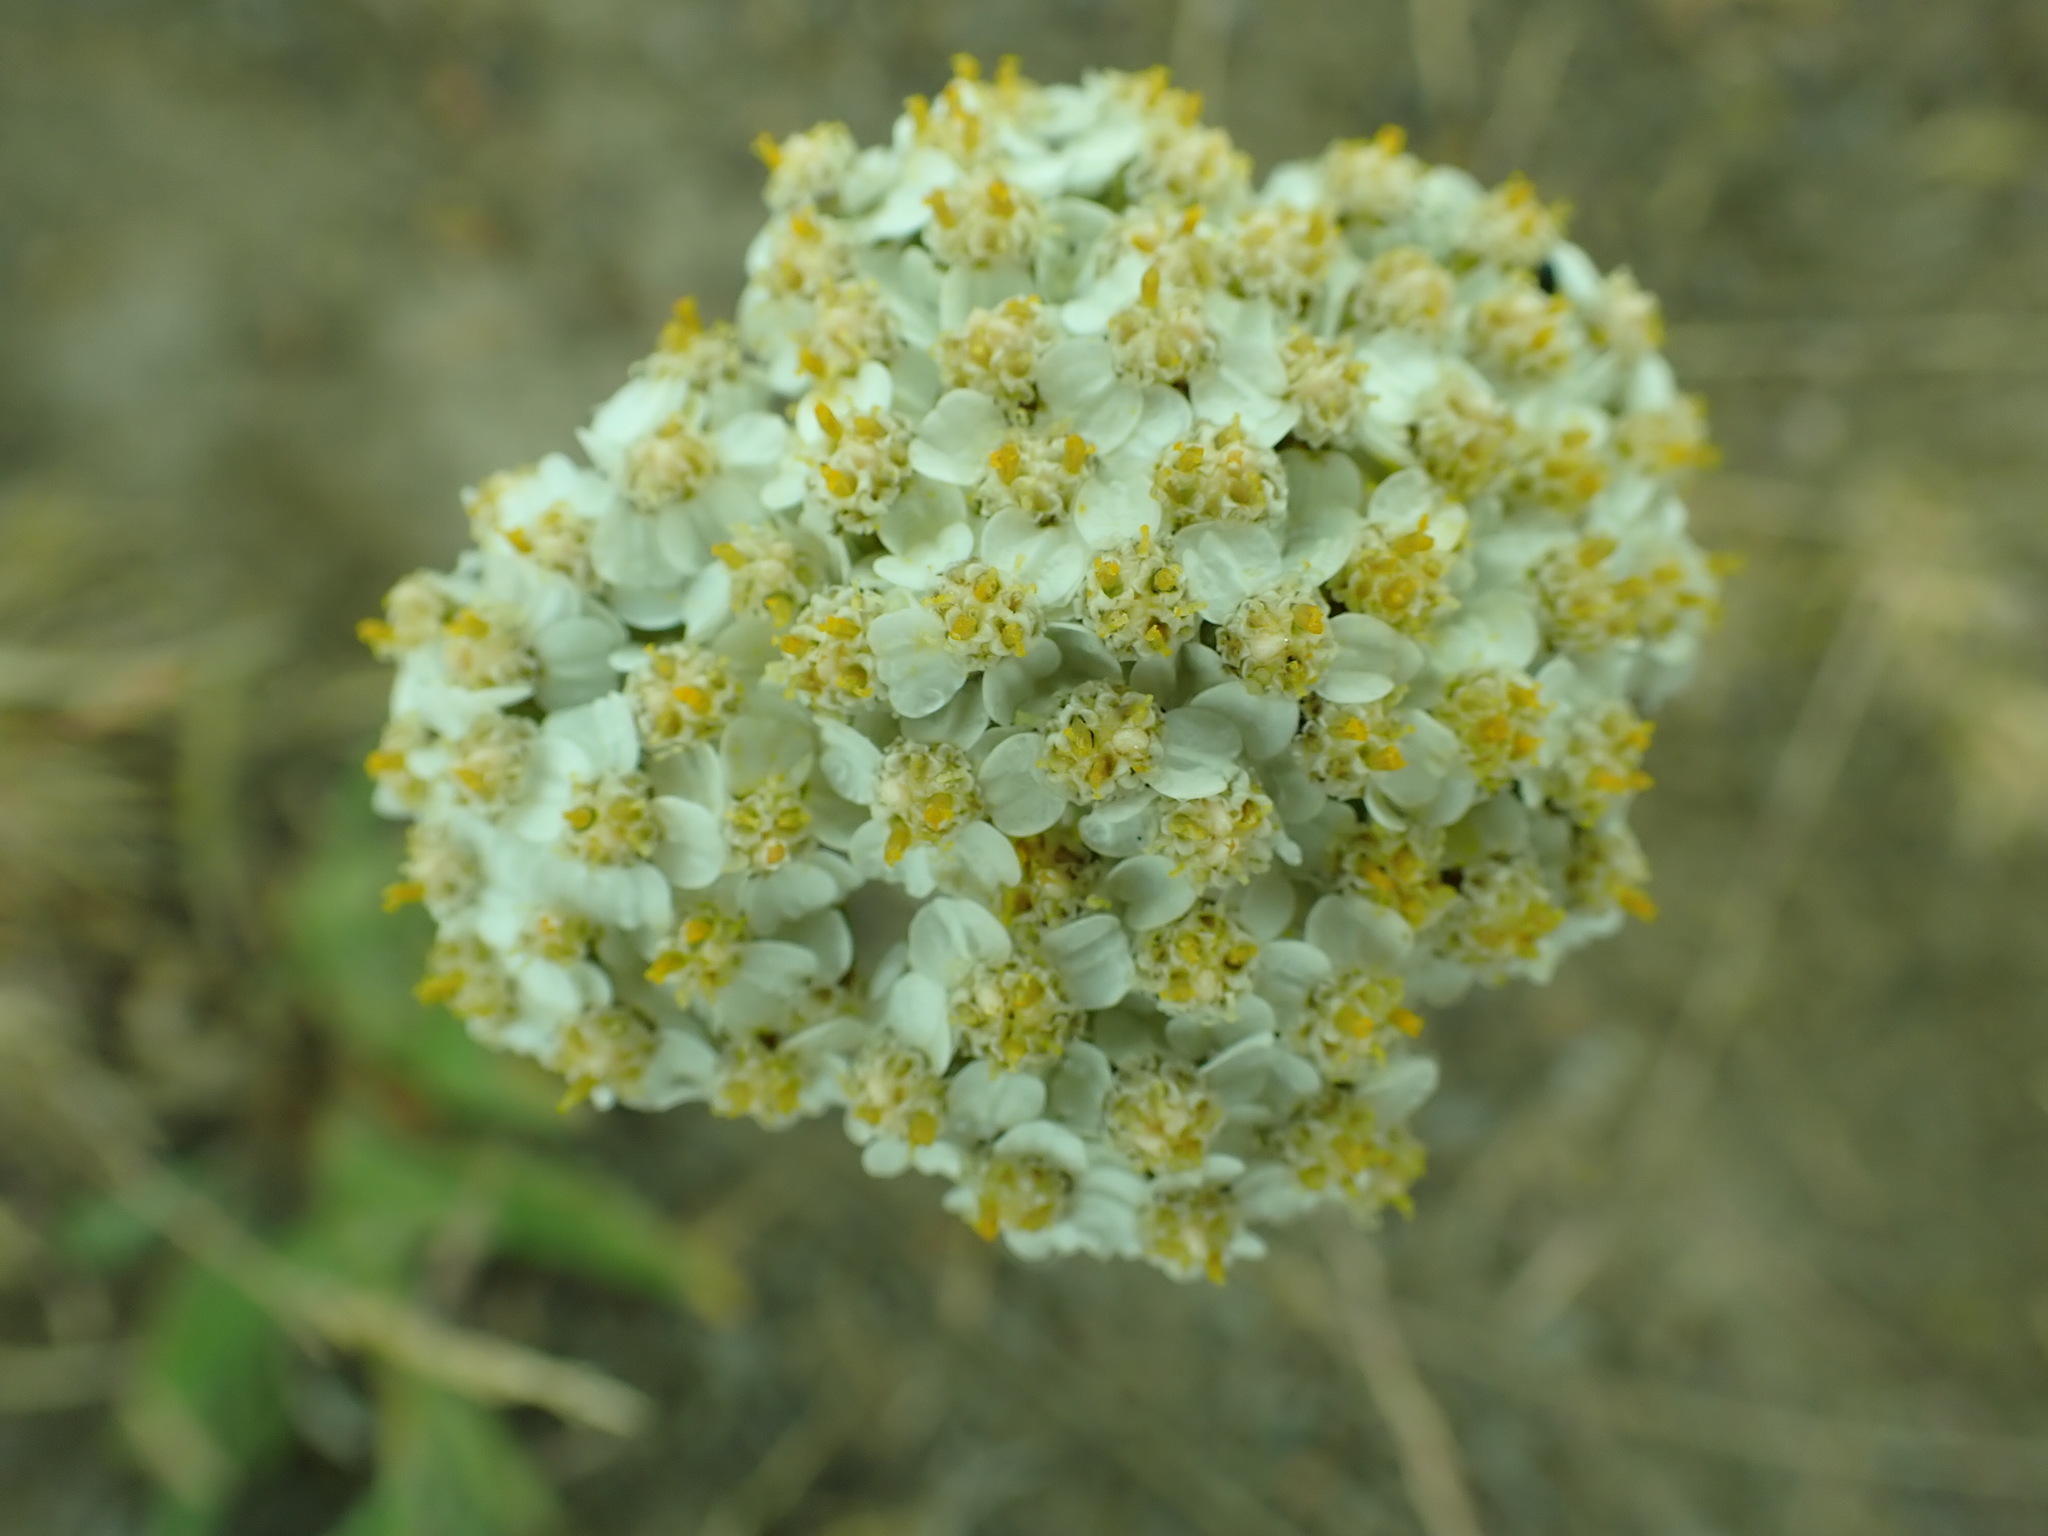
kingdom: Plantae
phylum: Tracheophyta
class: Magnoliopsida
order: Asterales
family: Asteraceae
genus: Achillea
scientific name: Achillea millefolium
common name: Yarrow
